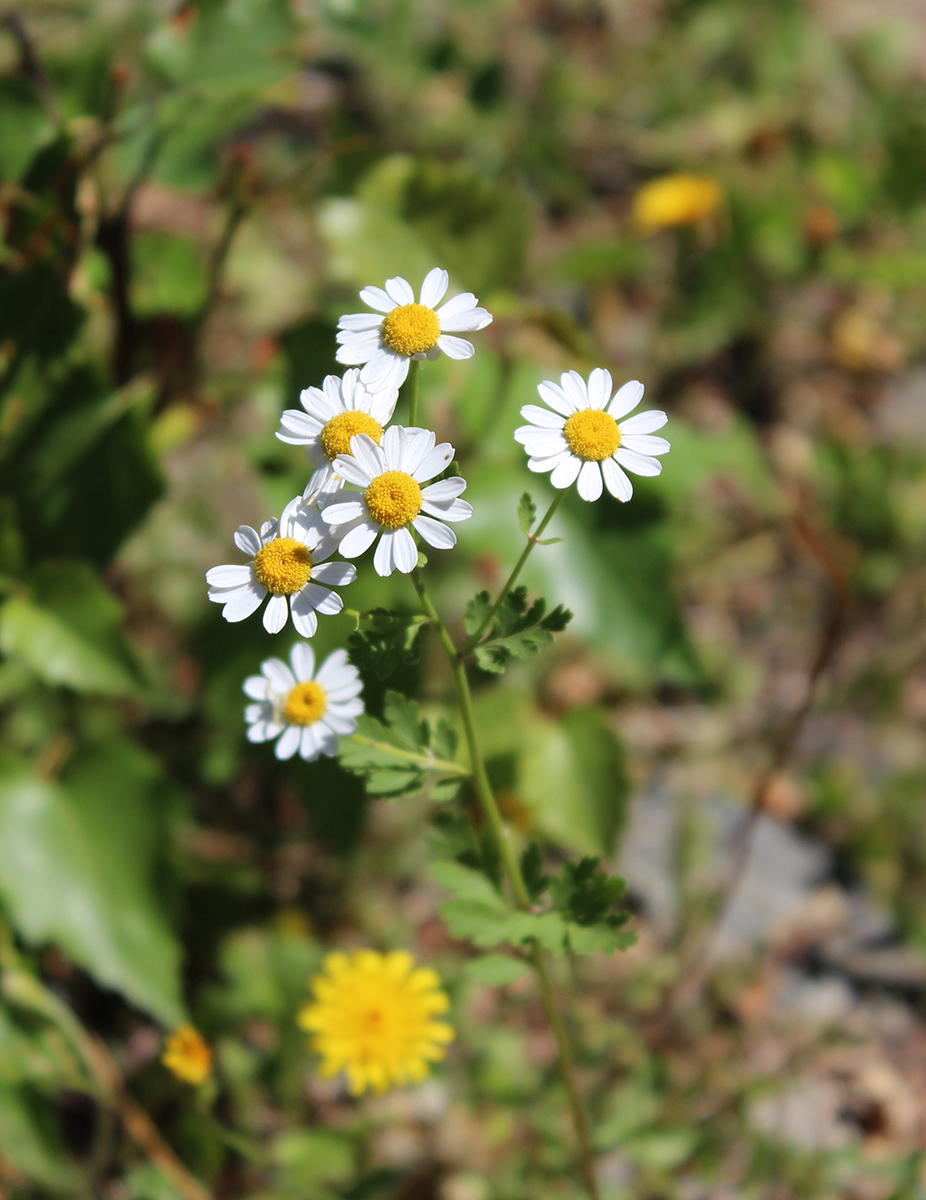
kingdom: Plantae
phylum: Tracheophyta
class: Magnoliopsida
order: Asterales
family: Asteraceae
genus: Tanacetum
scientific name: Tanacetum partheniifolium
